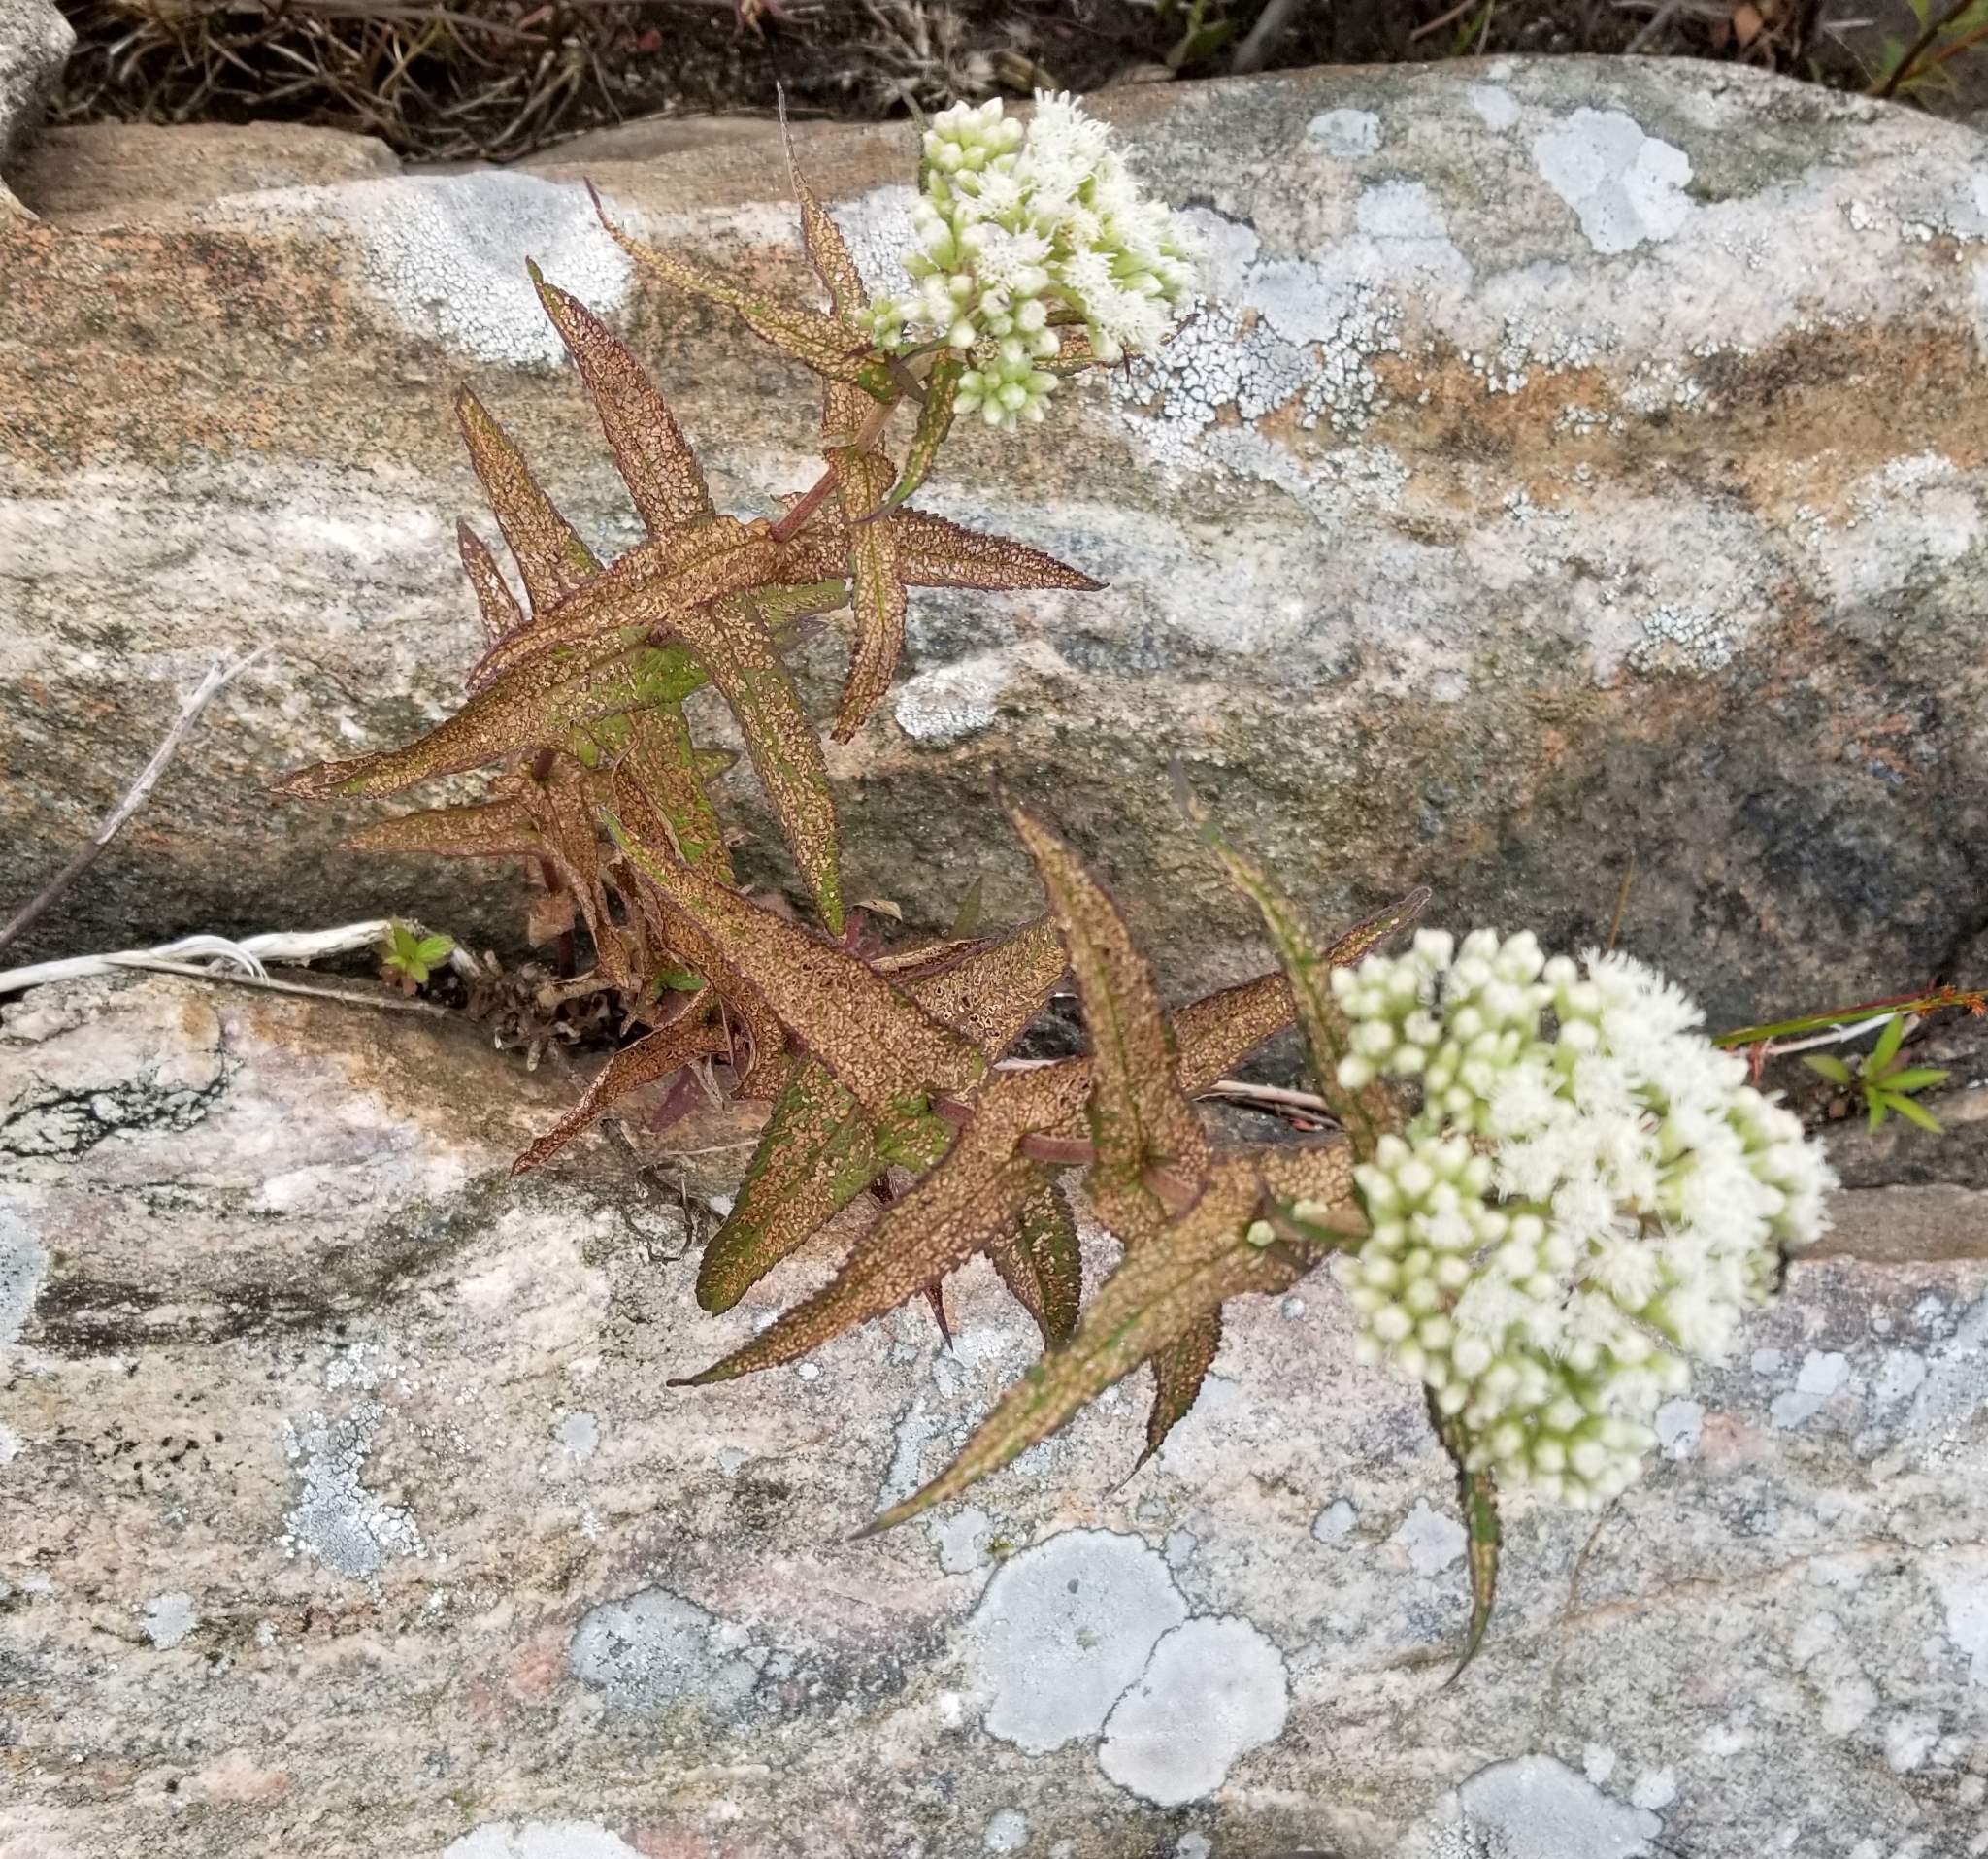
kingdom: Plantae
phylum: Tracheophyta
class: Magnoliopsida
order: Asterales
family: Asteraceae
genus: Eupatorium
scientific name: Eupatorium perfoliatum
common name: Boneset
